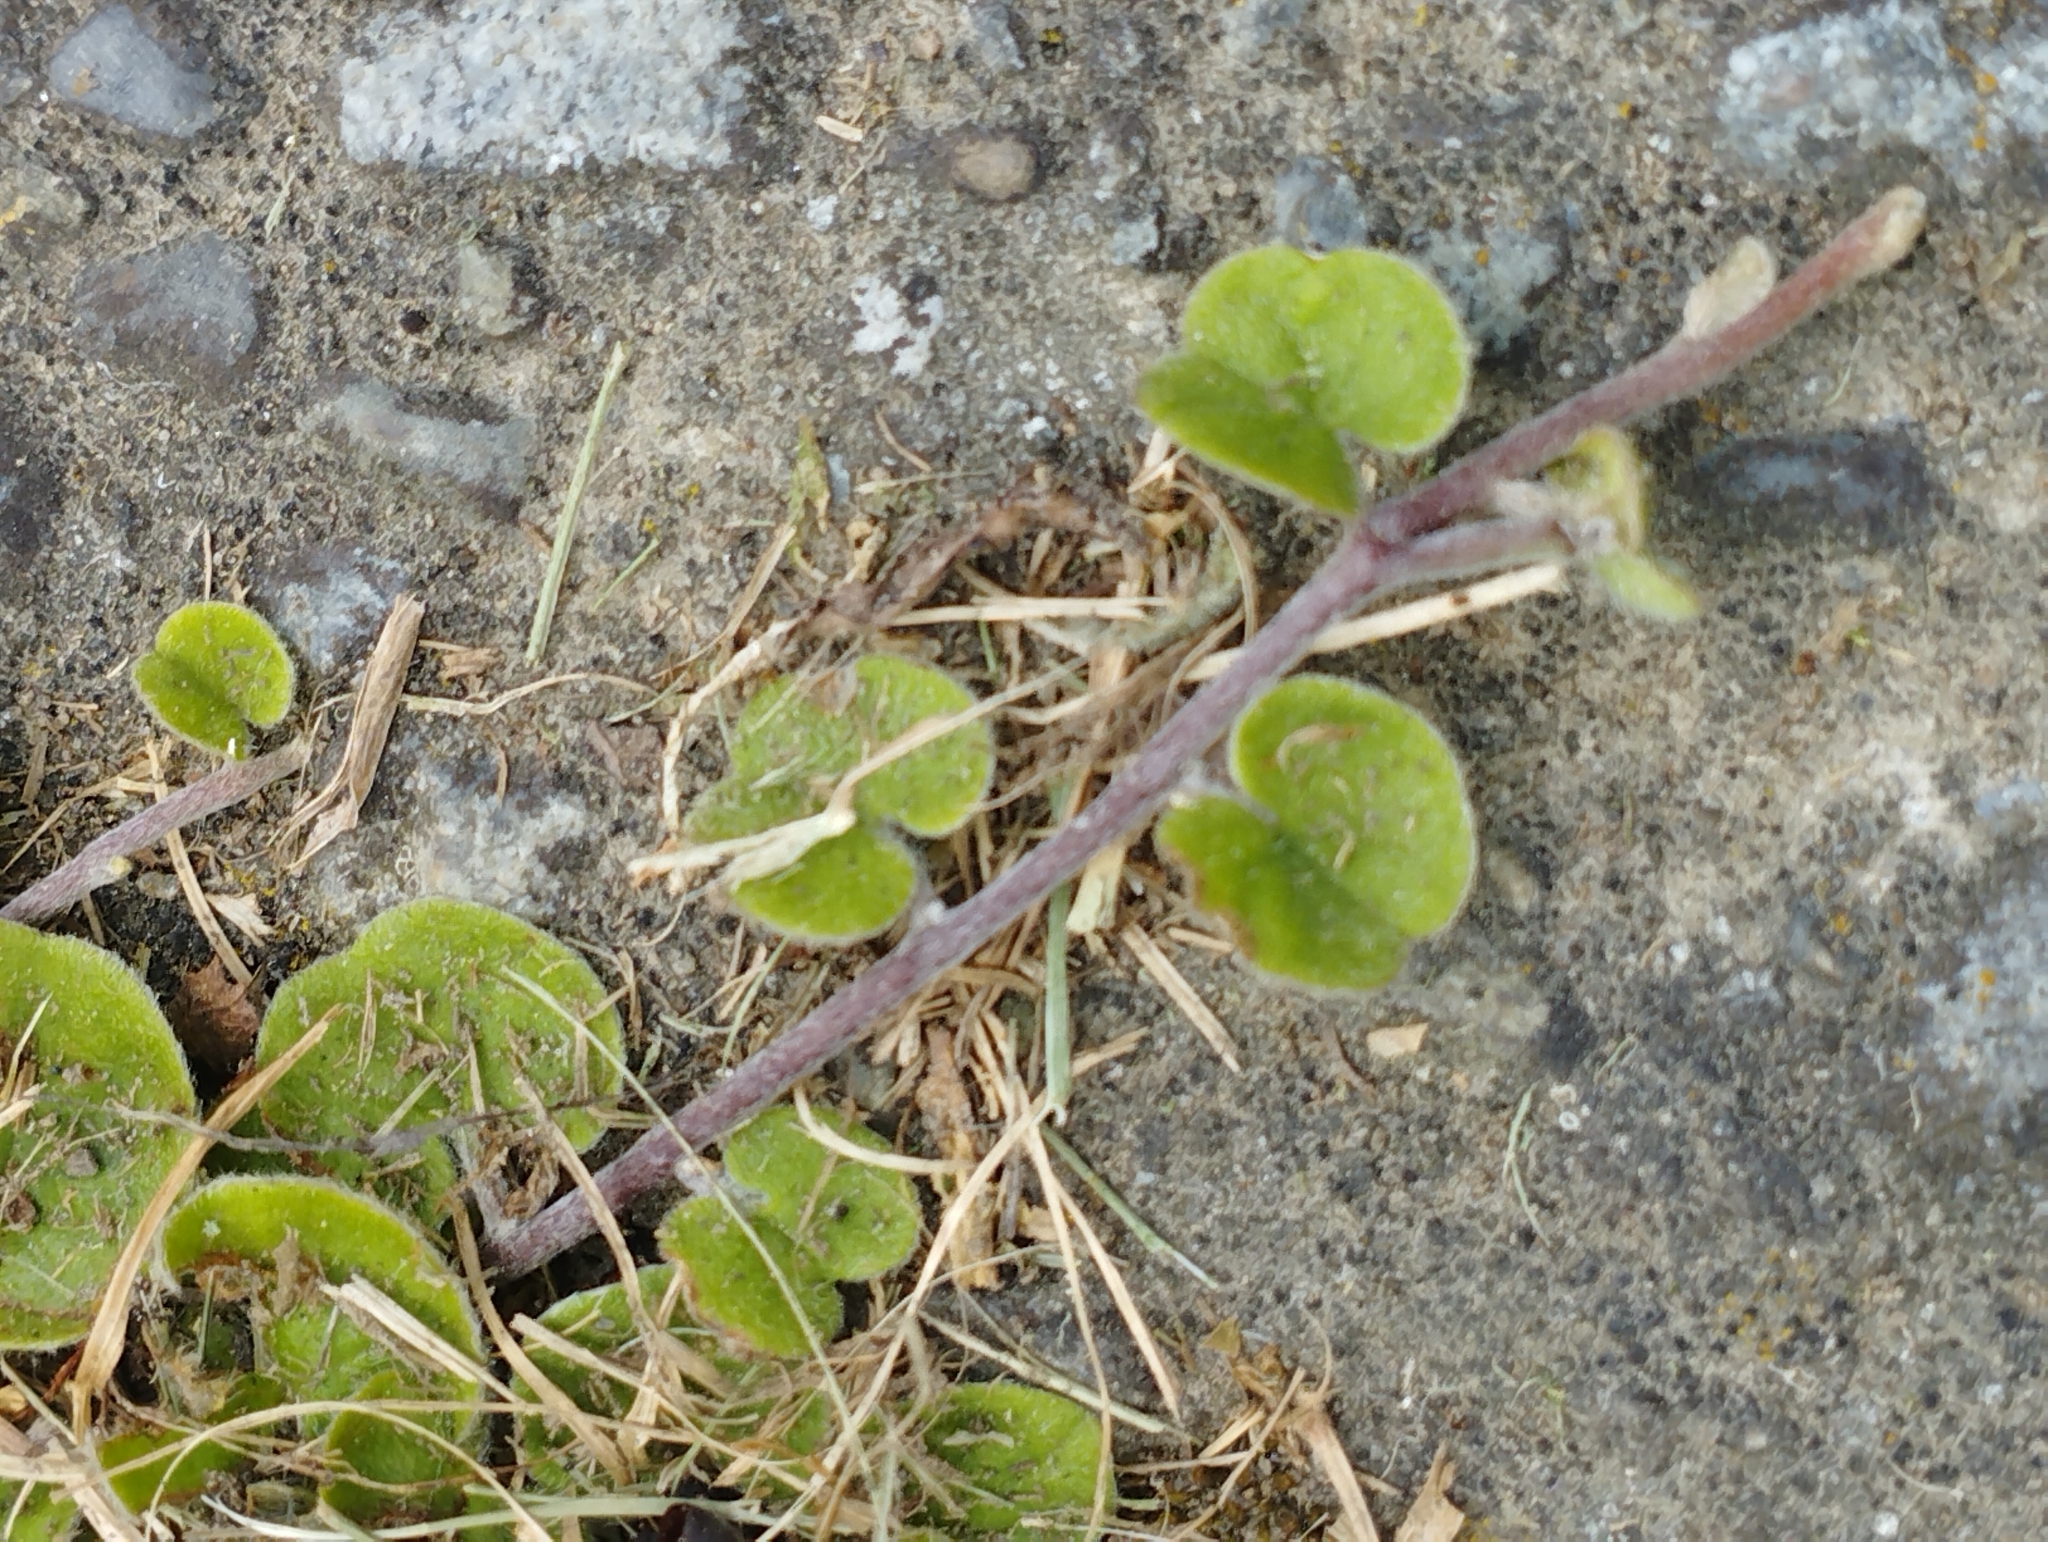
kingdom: Plantae
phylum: Tracheophyta
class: Magnoliopsida
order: Solanales
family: Convolvulaceae
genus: Dichondra
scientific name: Dichondra repens
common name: Kidneyweed
